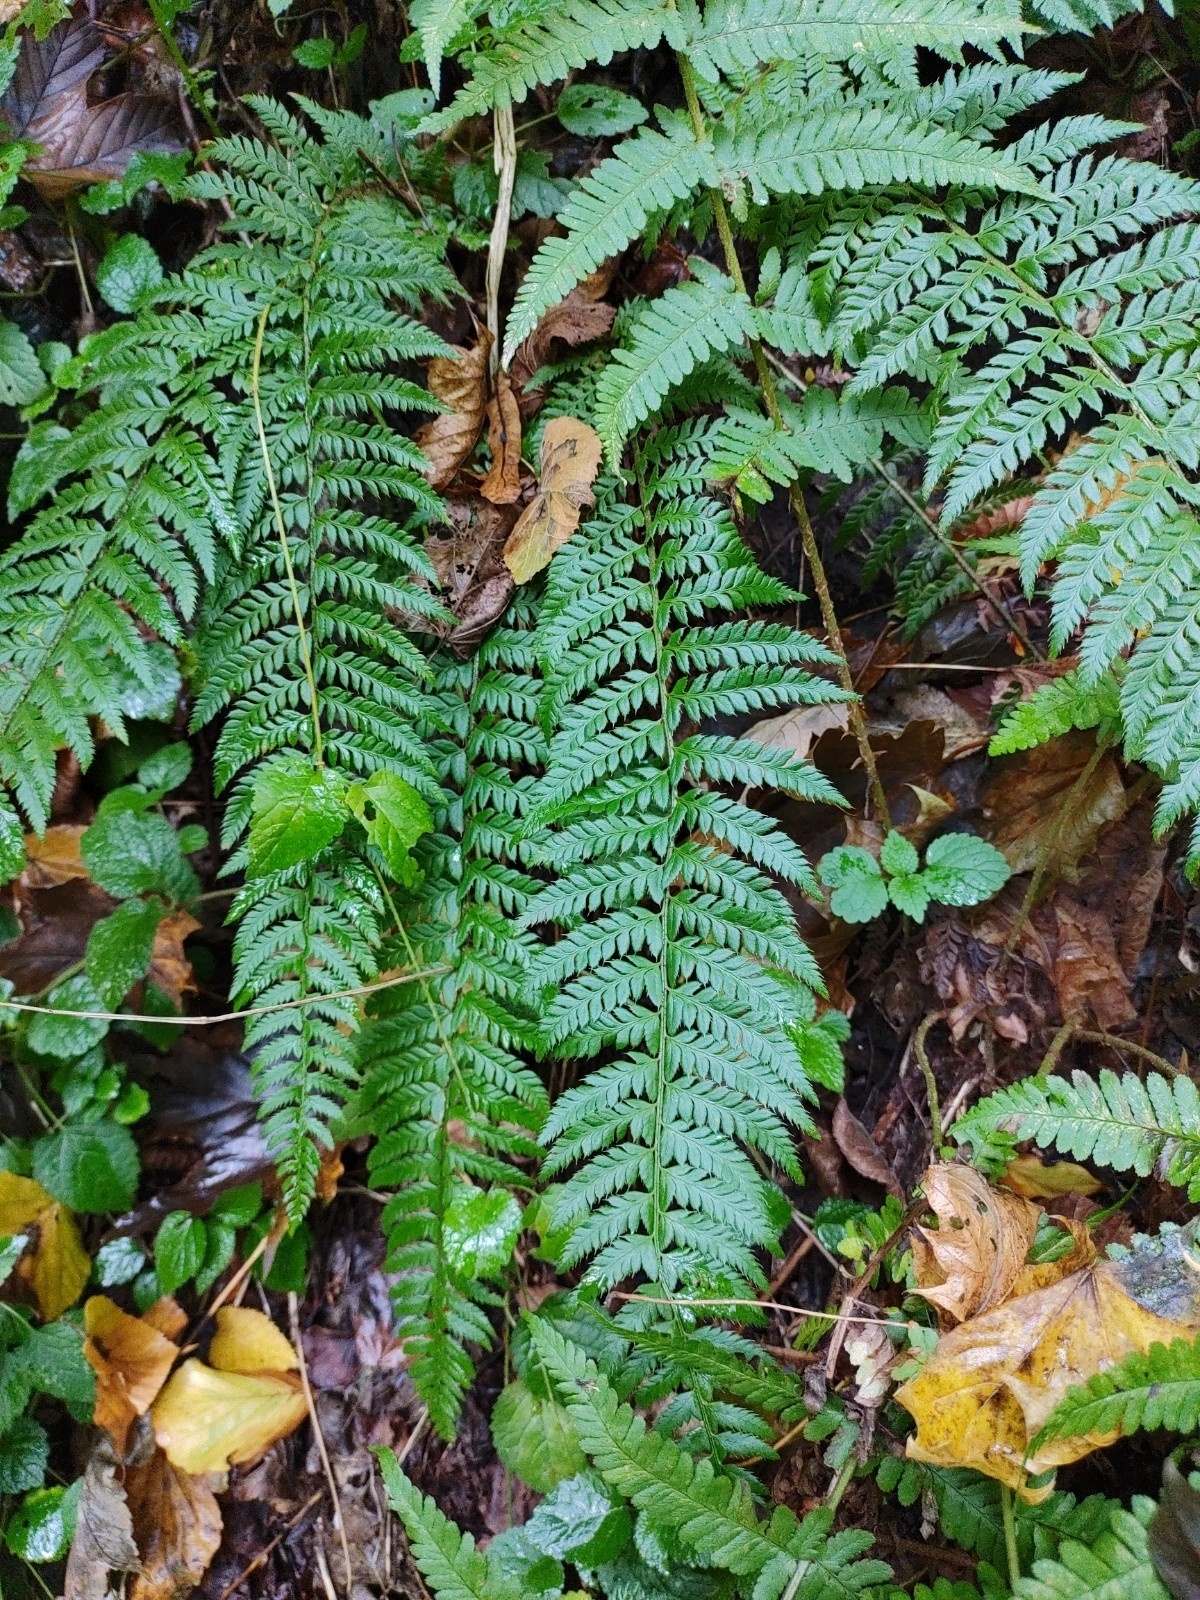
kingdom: Plantae
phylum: Tracheophyta
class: Polypodiopsida
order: Polypodiales
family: Dryopteridaceae
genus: Polystichum
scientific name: Polystichum aculeatum
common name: Hard shield-fern
